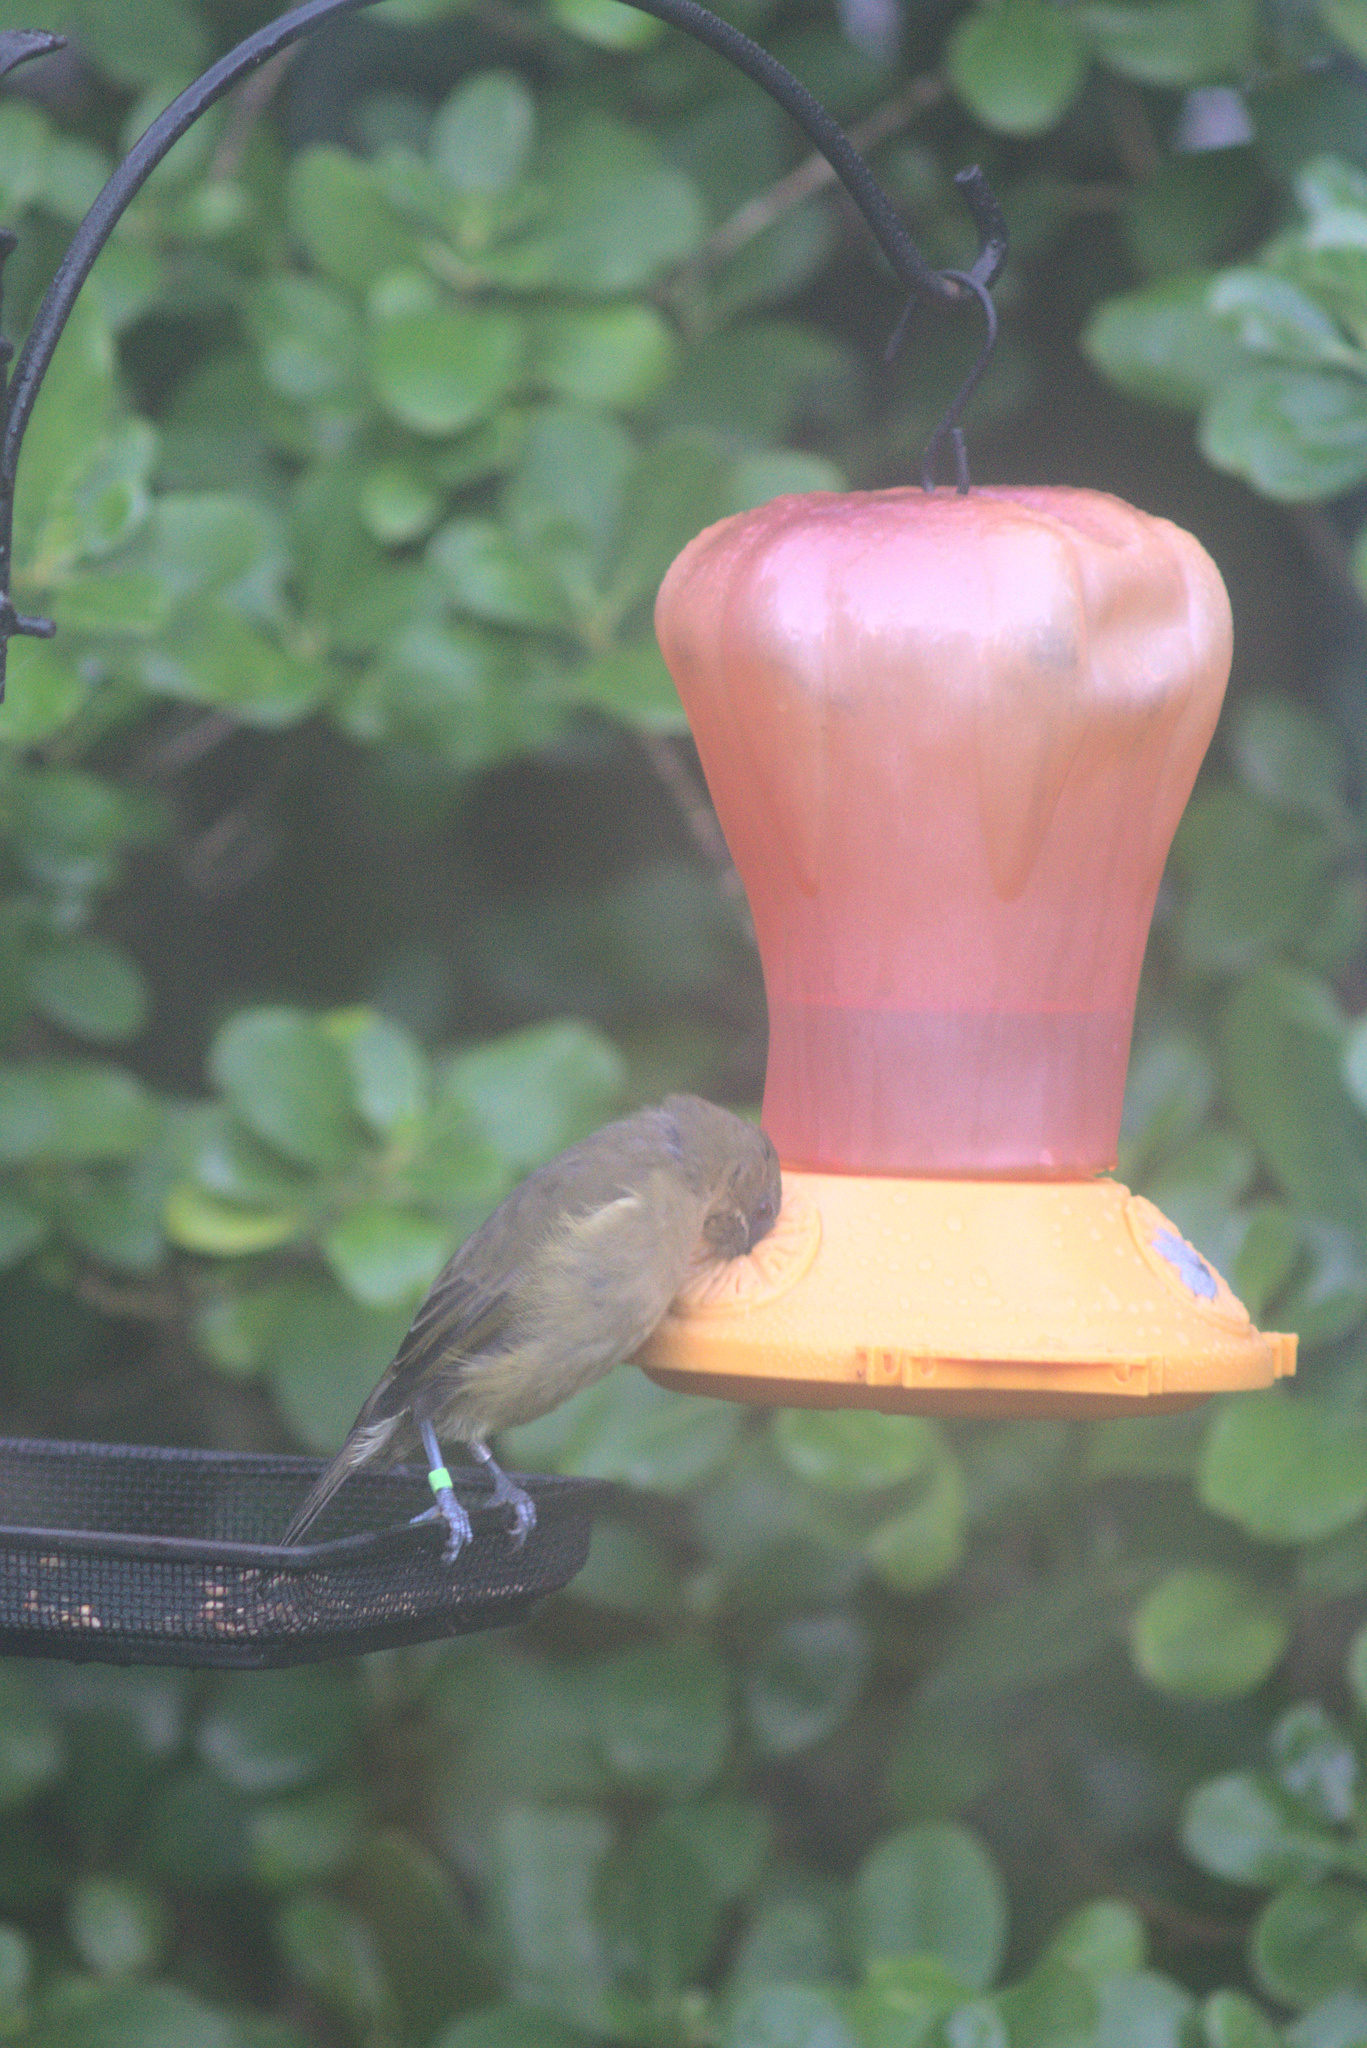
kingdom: Animalia
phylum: Chordata
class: Aves
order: Passeriformes
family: Meliphagidae
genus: Anthornis
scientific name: Anthornis melanura
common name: New zealand bellbird
